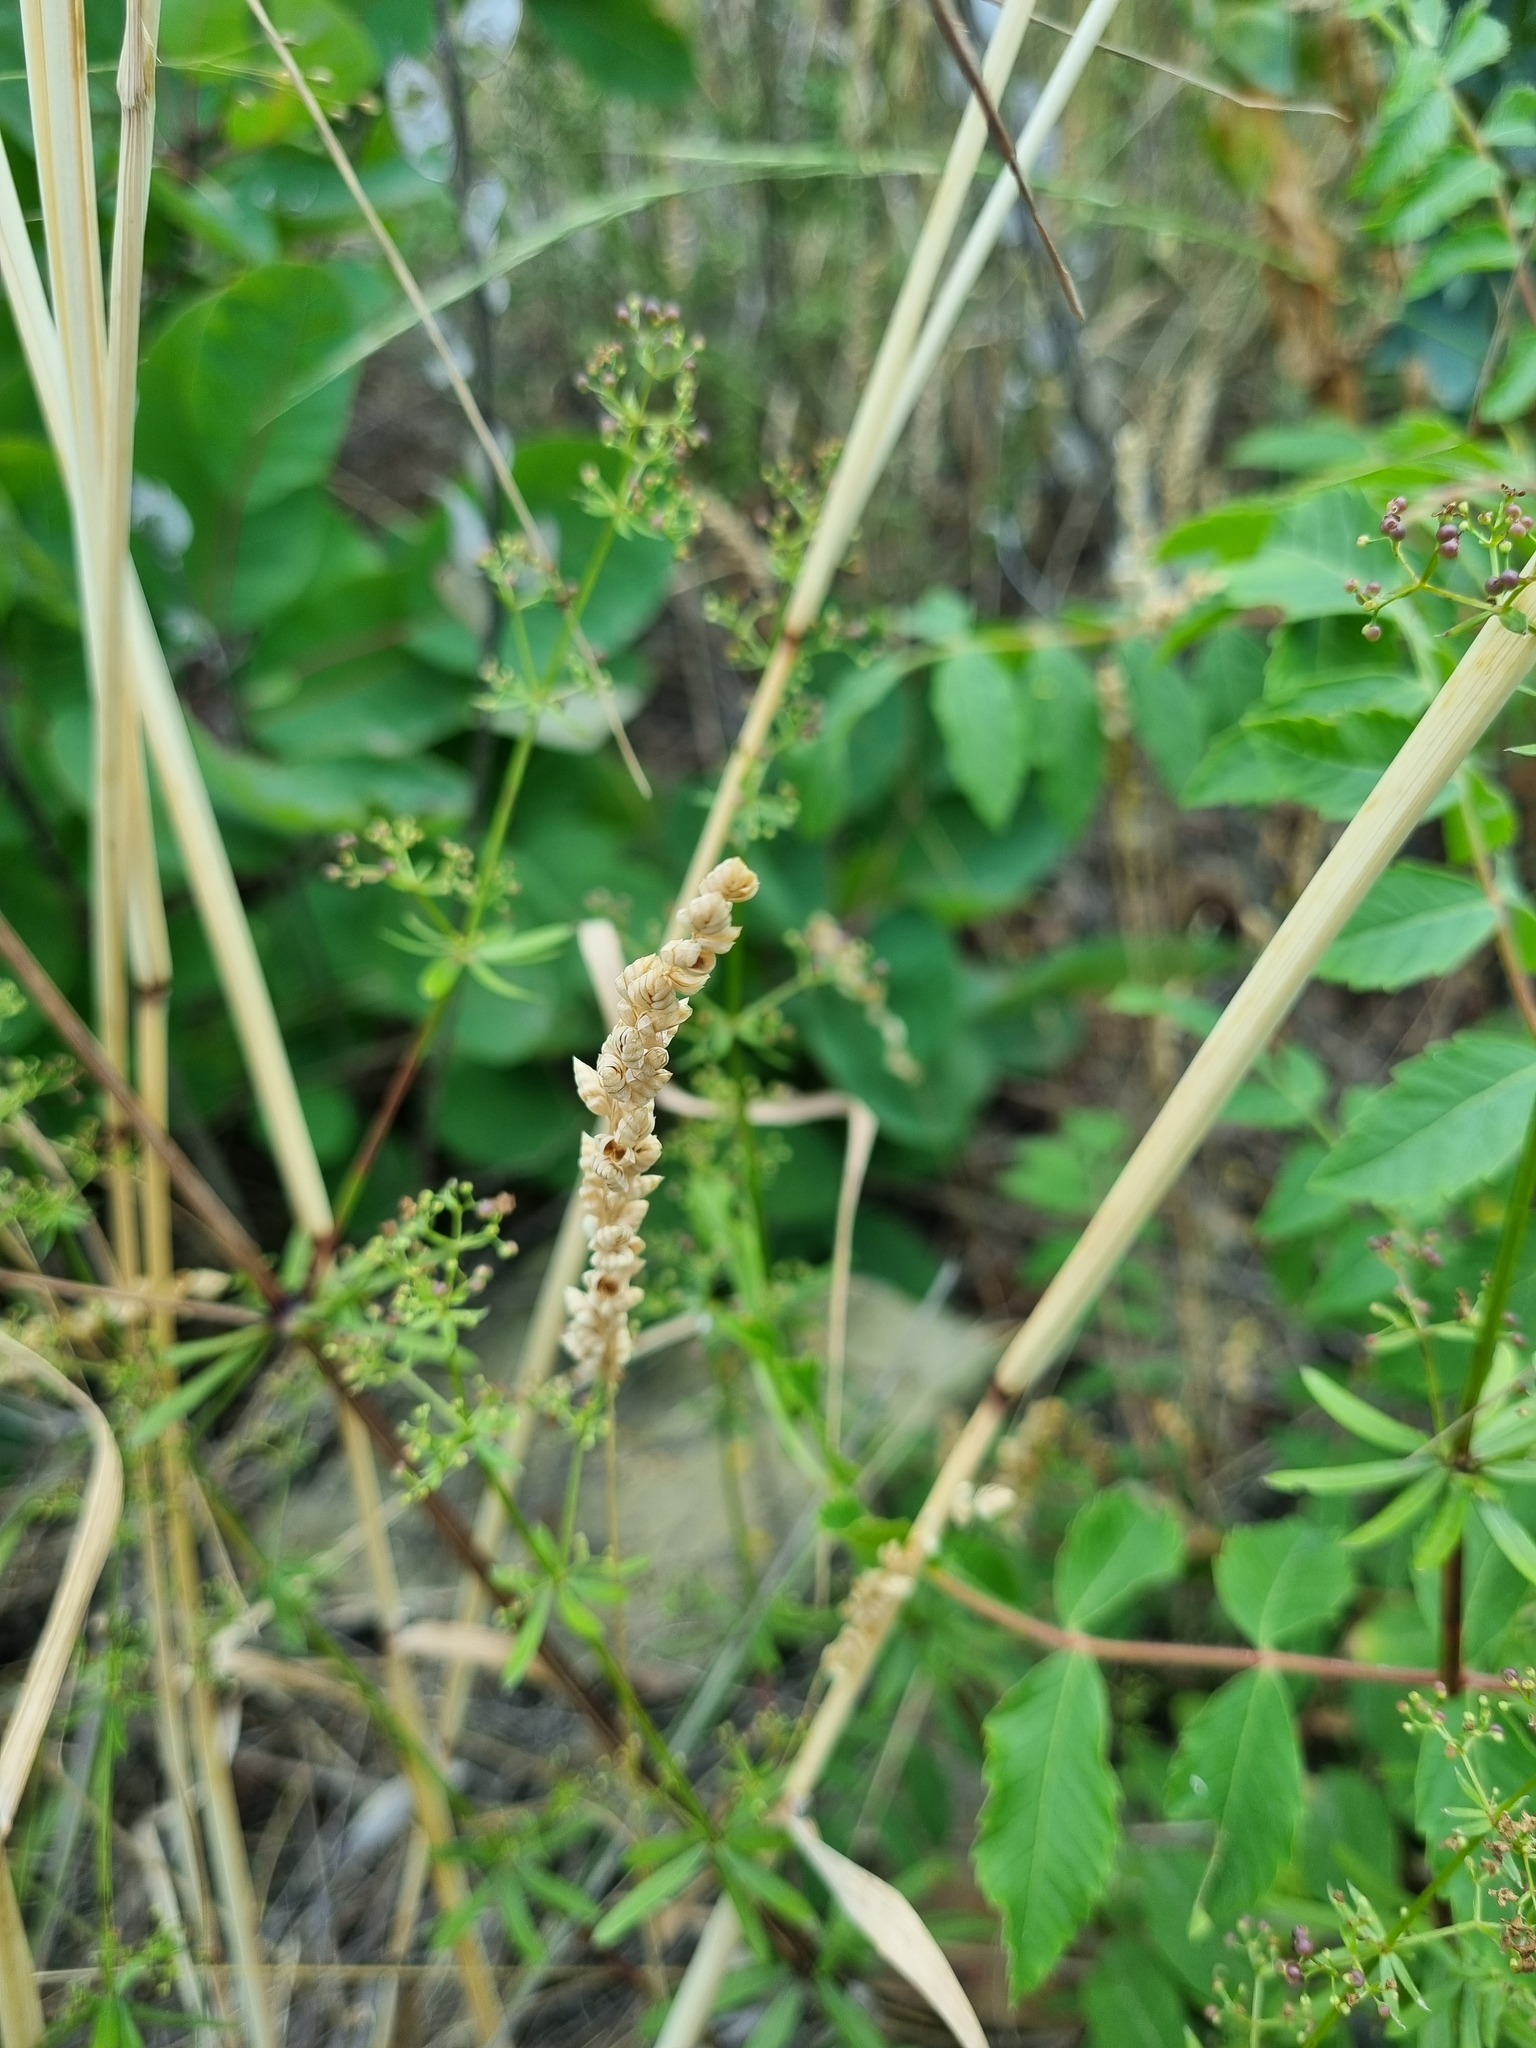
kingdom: Plantae
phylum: Tracheophyta
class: Liliopsida
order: Poales
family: Poaceae
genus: Briza
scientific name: Briza humilis
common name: Spiked quaking grass
